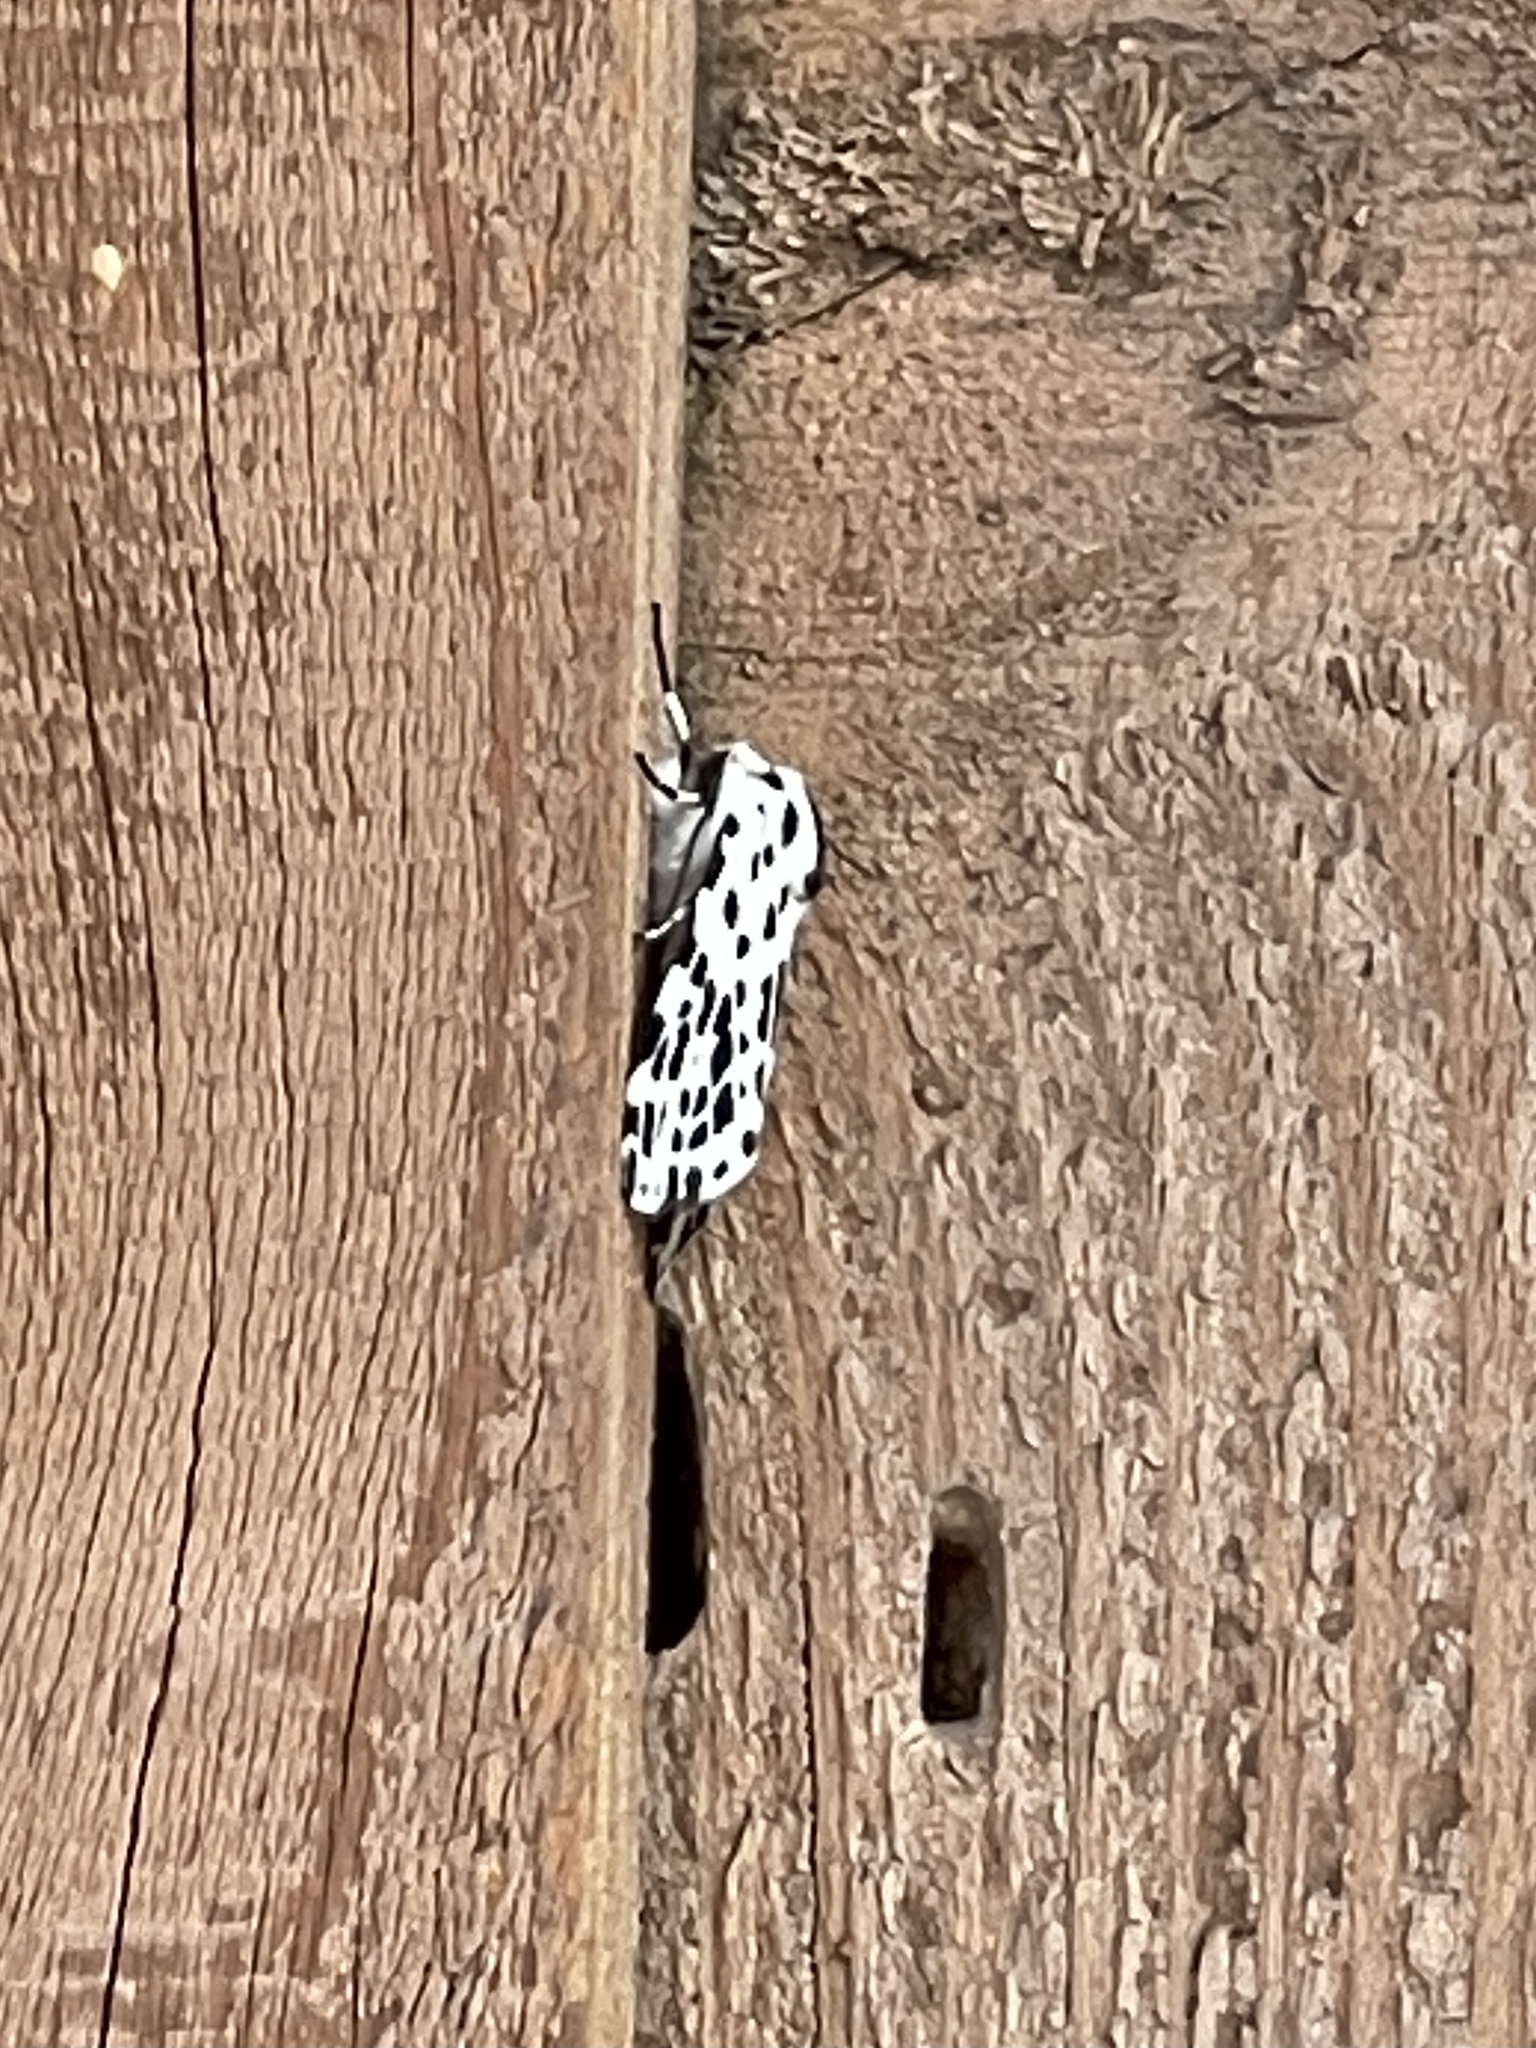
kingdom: Animalia
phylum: Arthropoda
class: Insecta
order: Lepidoptera
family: Erebidae
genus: Hypercompe
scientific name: Hypercompe permaculata
